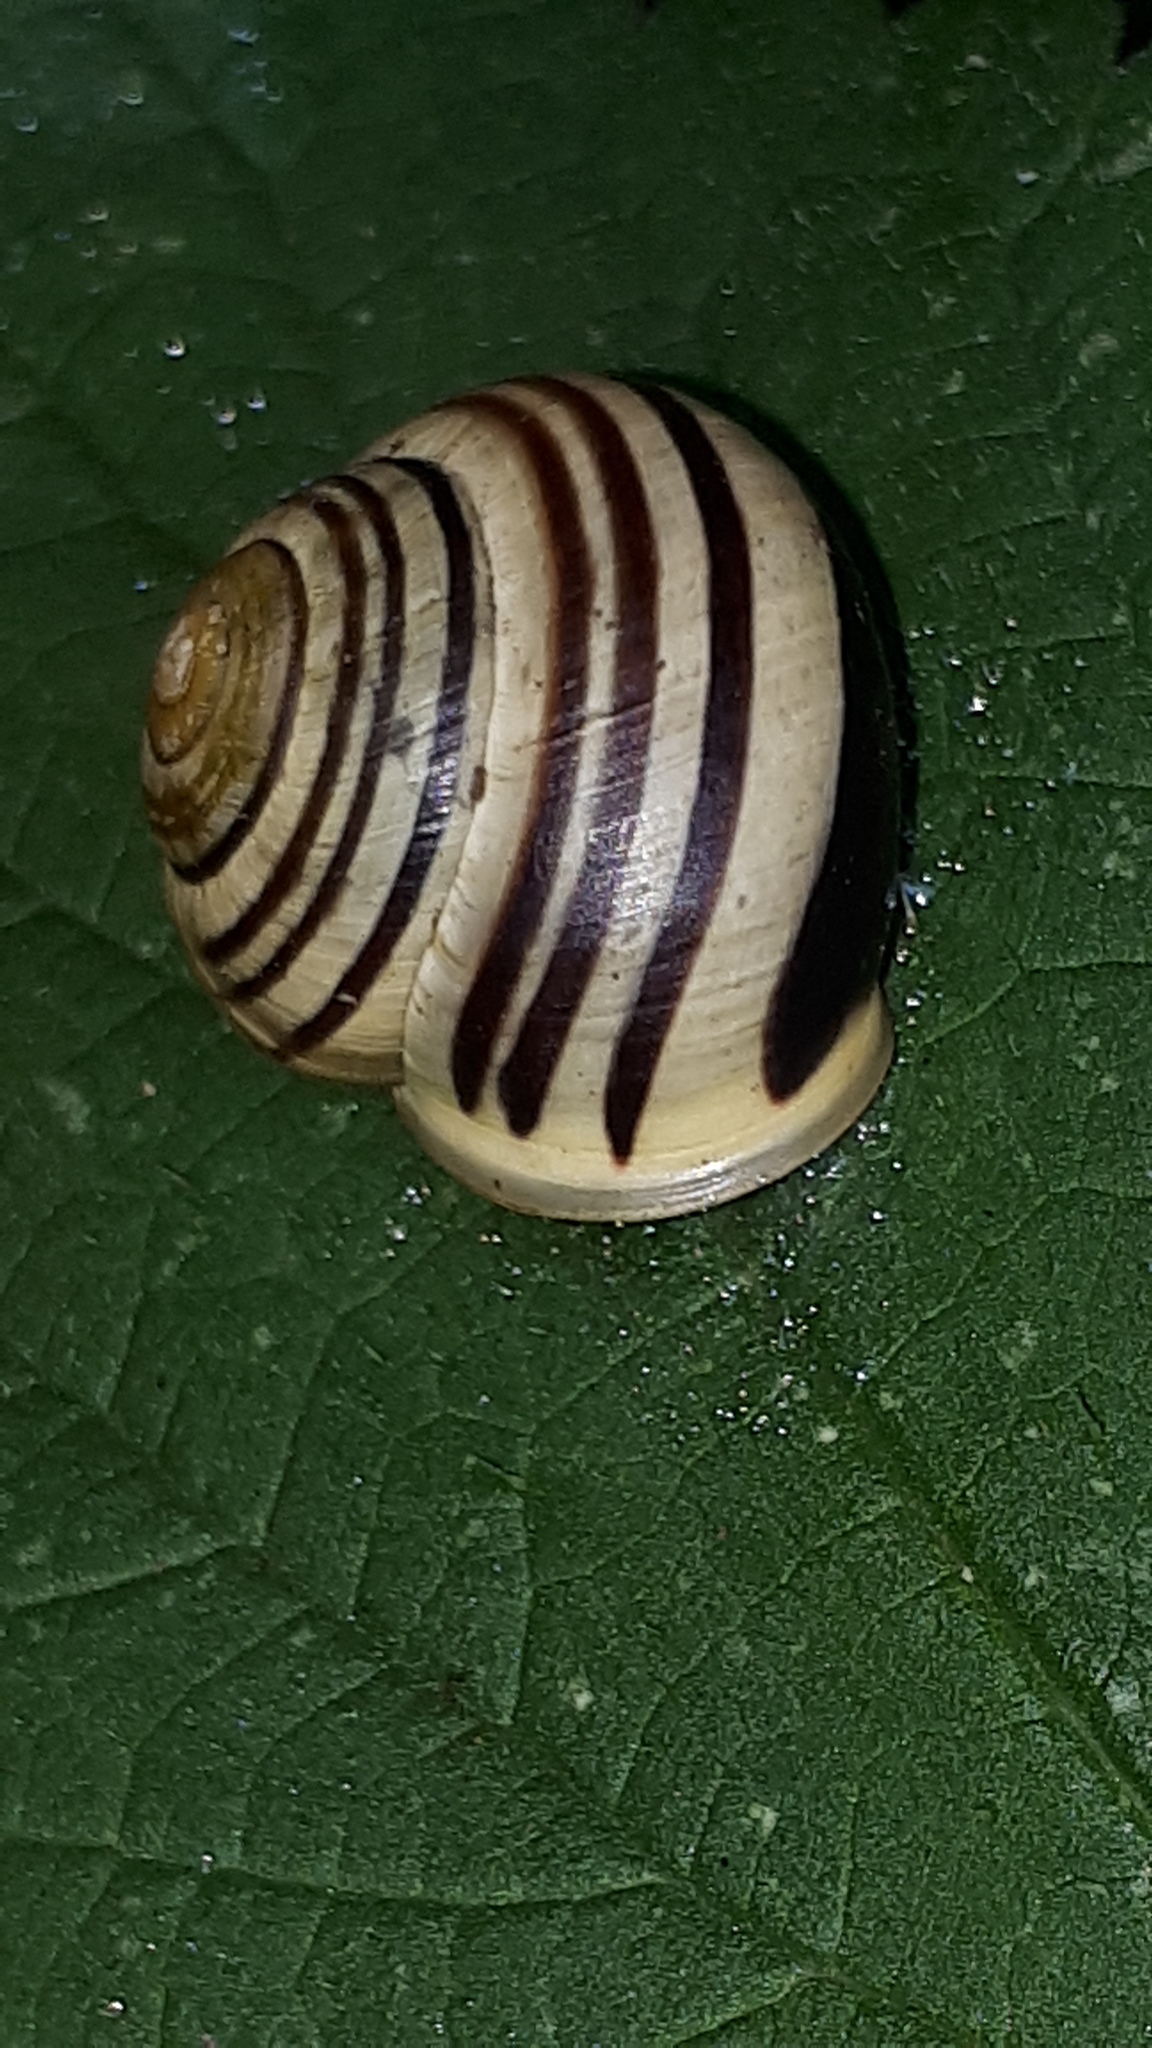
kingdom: Animalia
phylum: Mollusca
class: Gastropoda
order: Stylommatophora
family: Helicidae
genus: Cepaea
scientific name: Cepaea hortensis
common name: White-lip gardensnail
